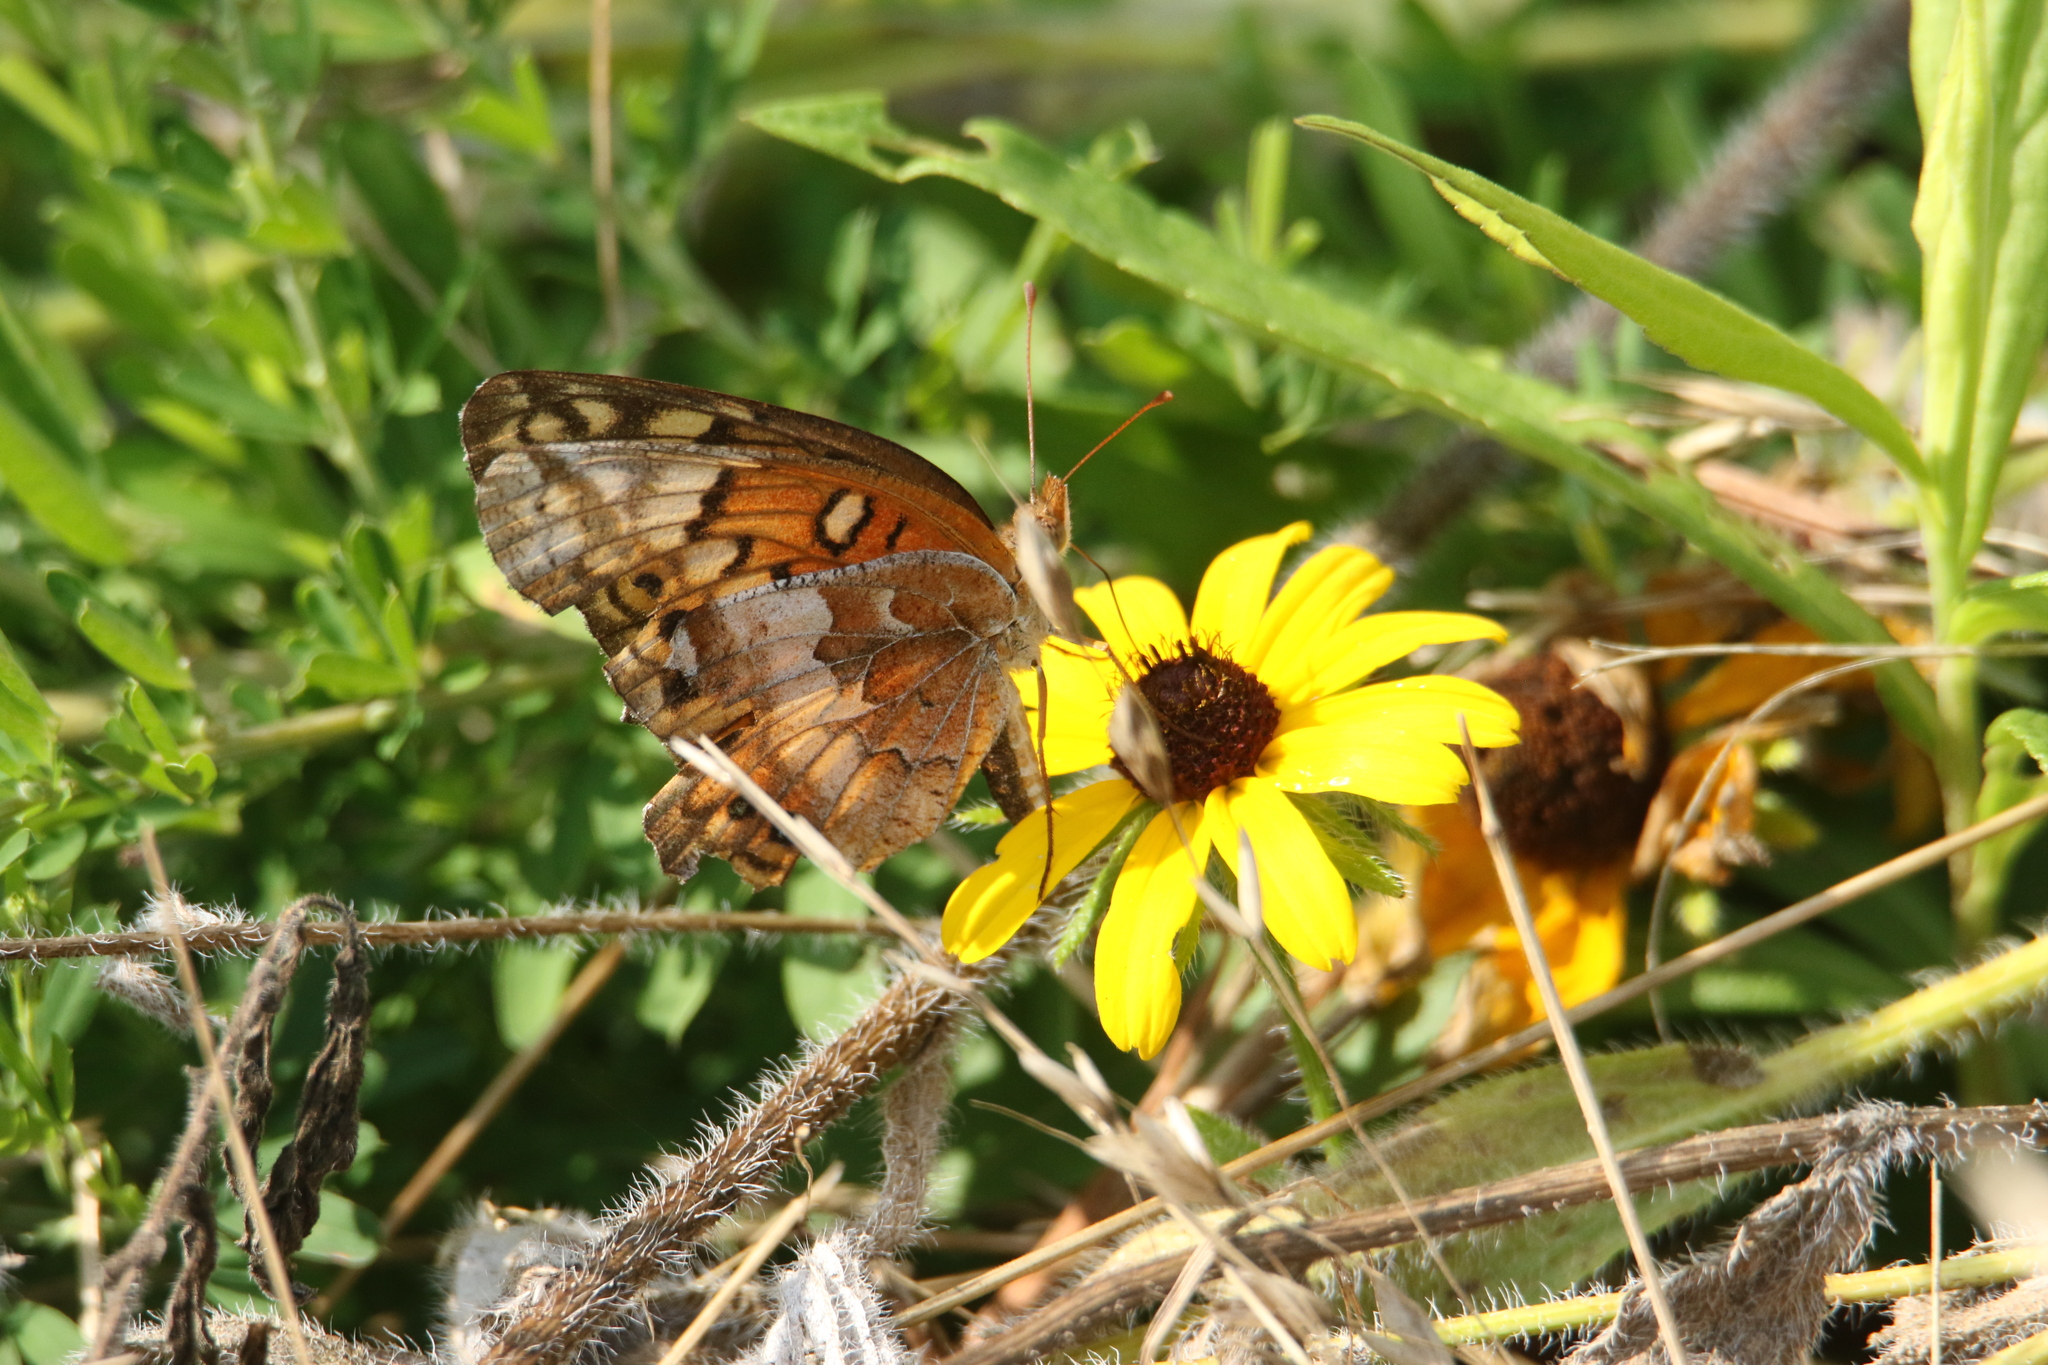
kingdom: Animalia
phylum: Arthropoda
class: Insecta
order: Lepidoptera
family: Nymphalidae
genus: Euptoieta
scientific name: Euptoieta claudia
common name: Variegated fritillary
